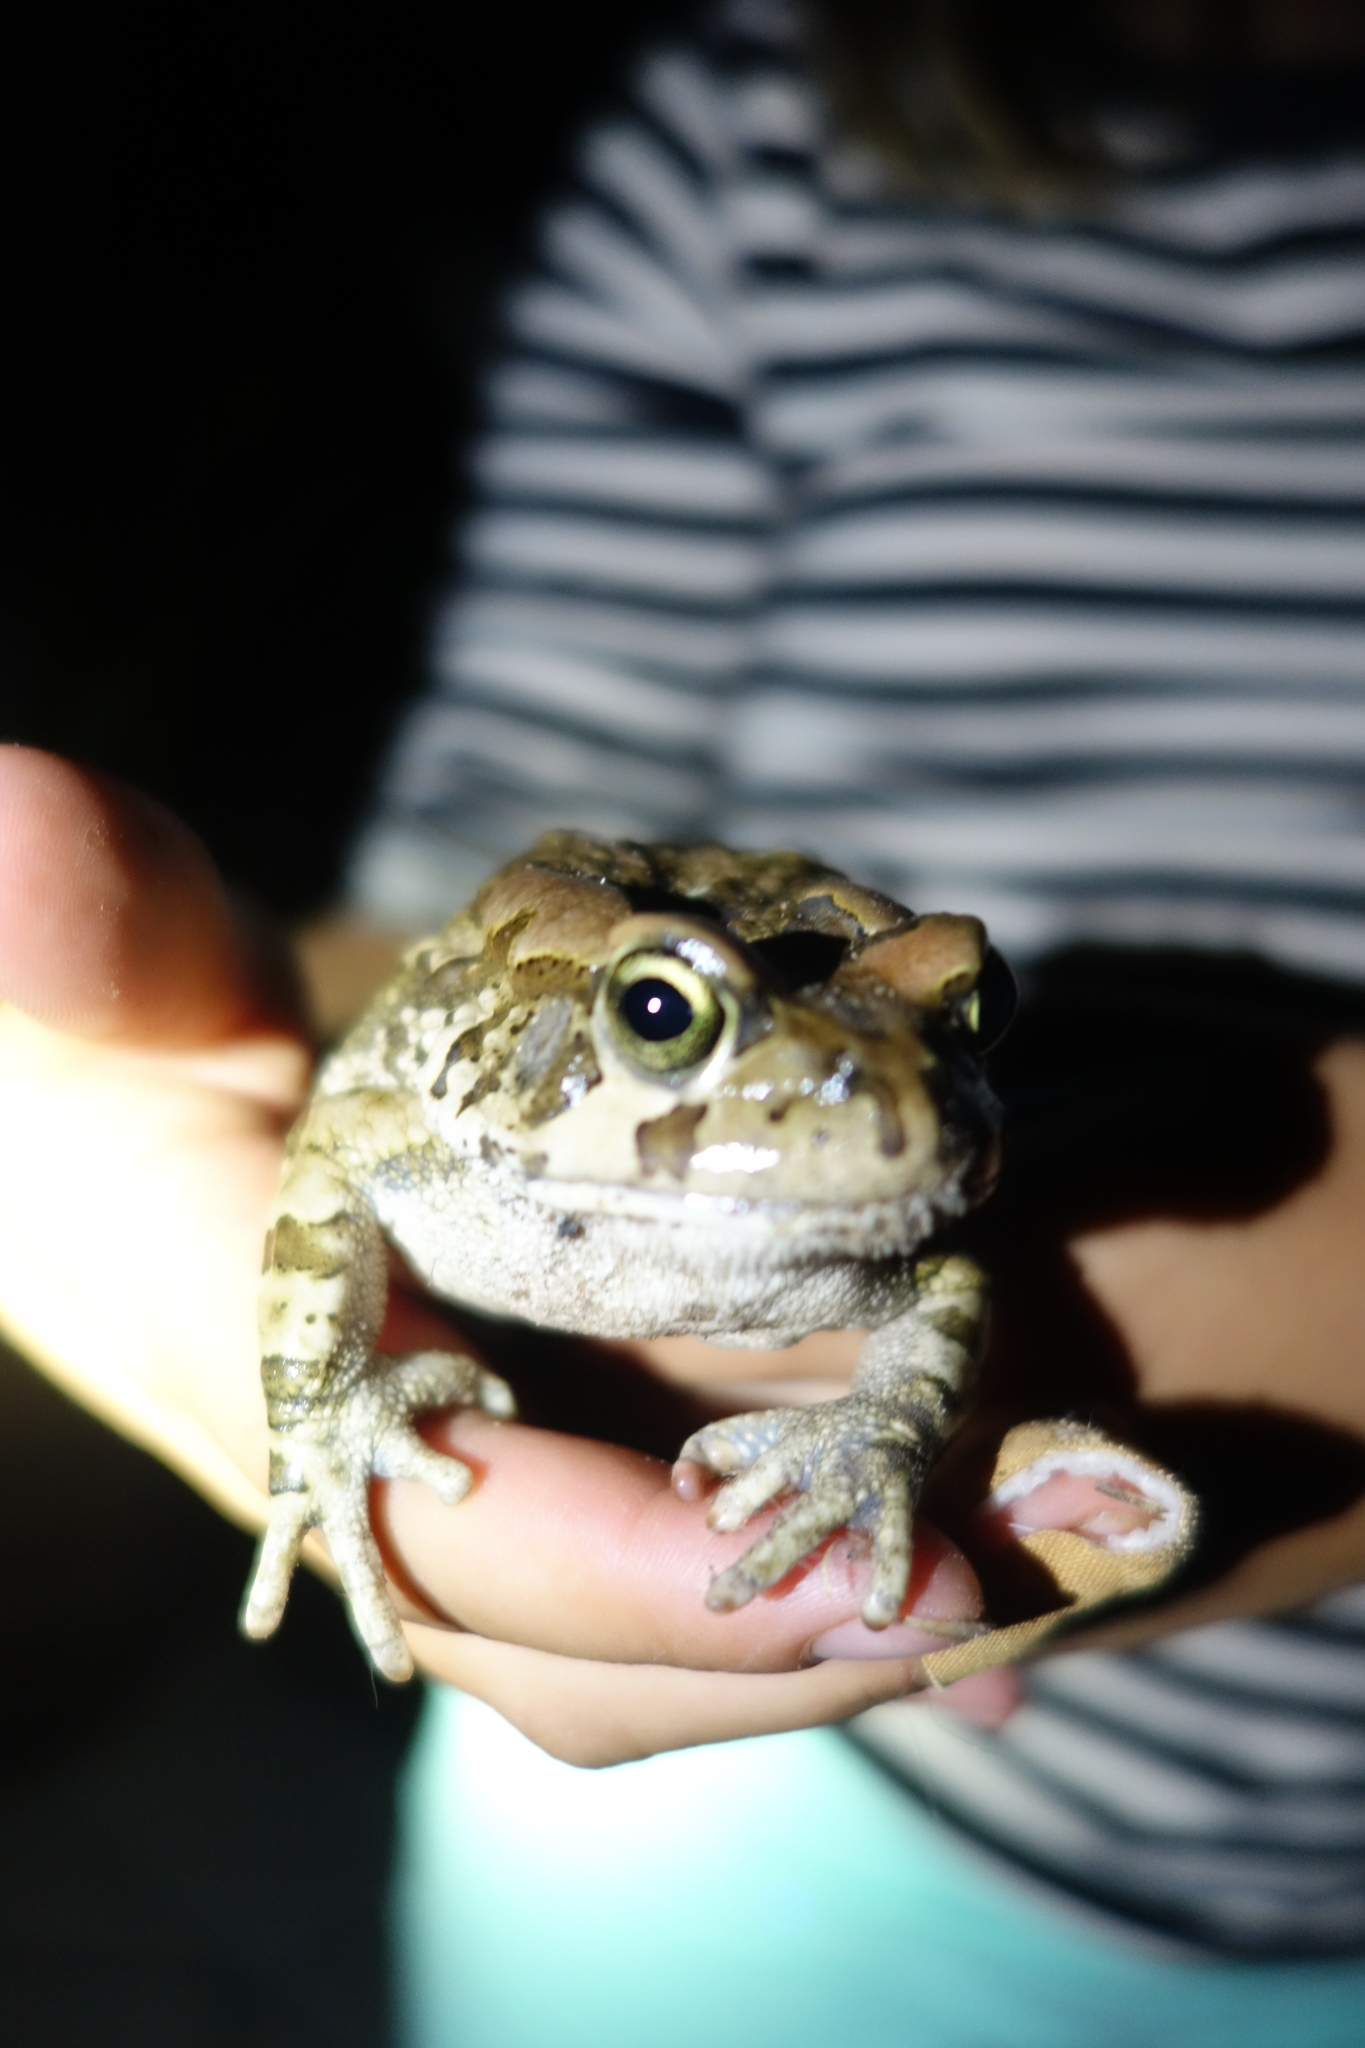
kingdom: Animalia
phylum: Chordata
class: Amphibia
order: Anura
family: Bufonidae
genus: Sclerophrys
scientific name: Sclerophrys capensis
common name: Ranger’s toad
